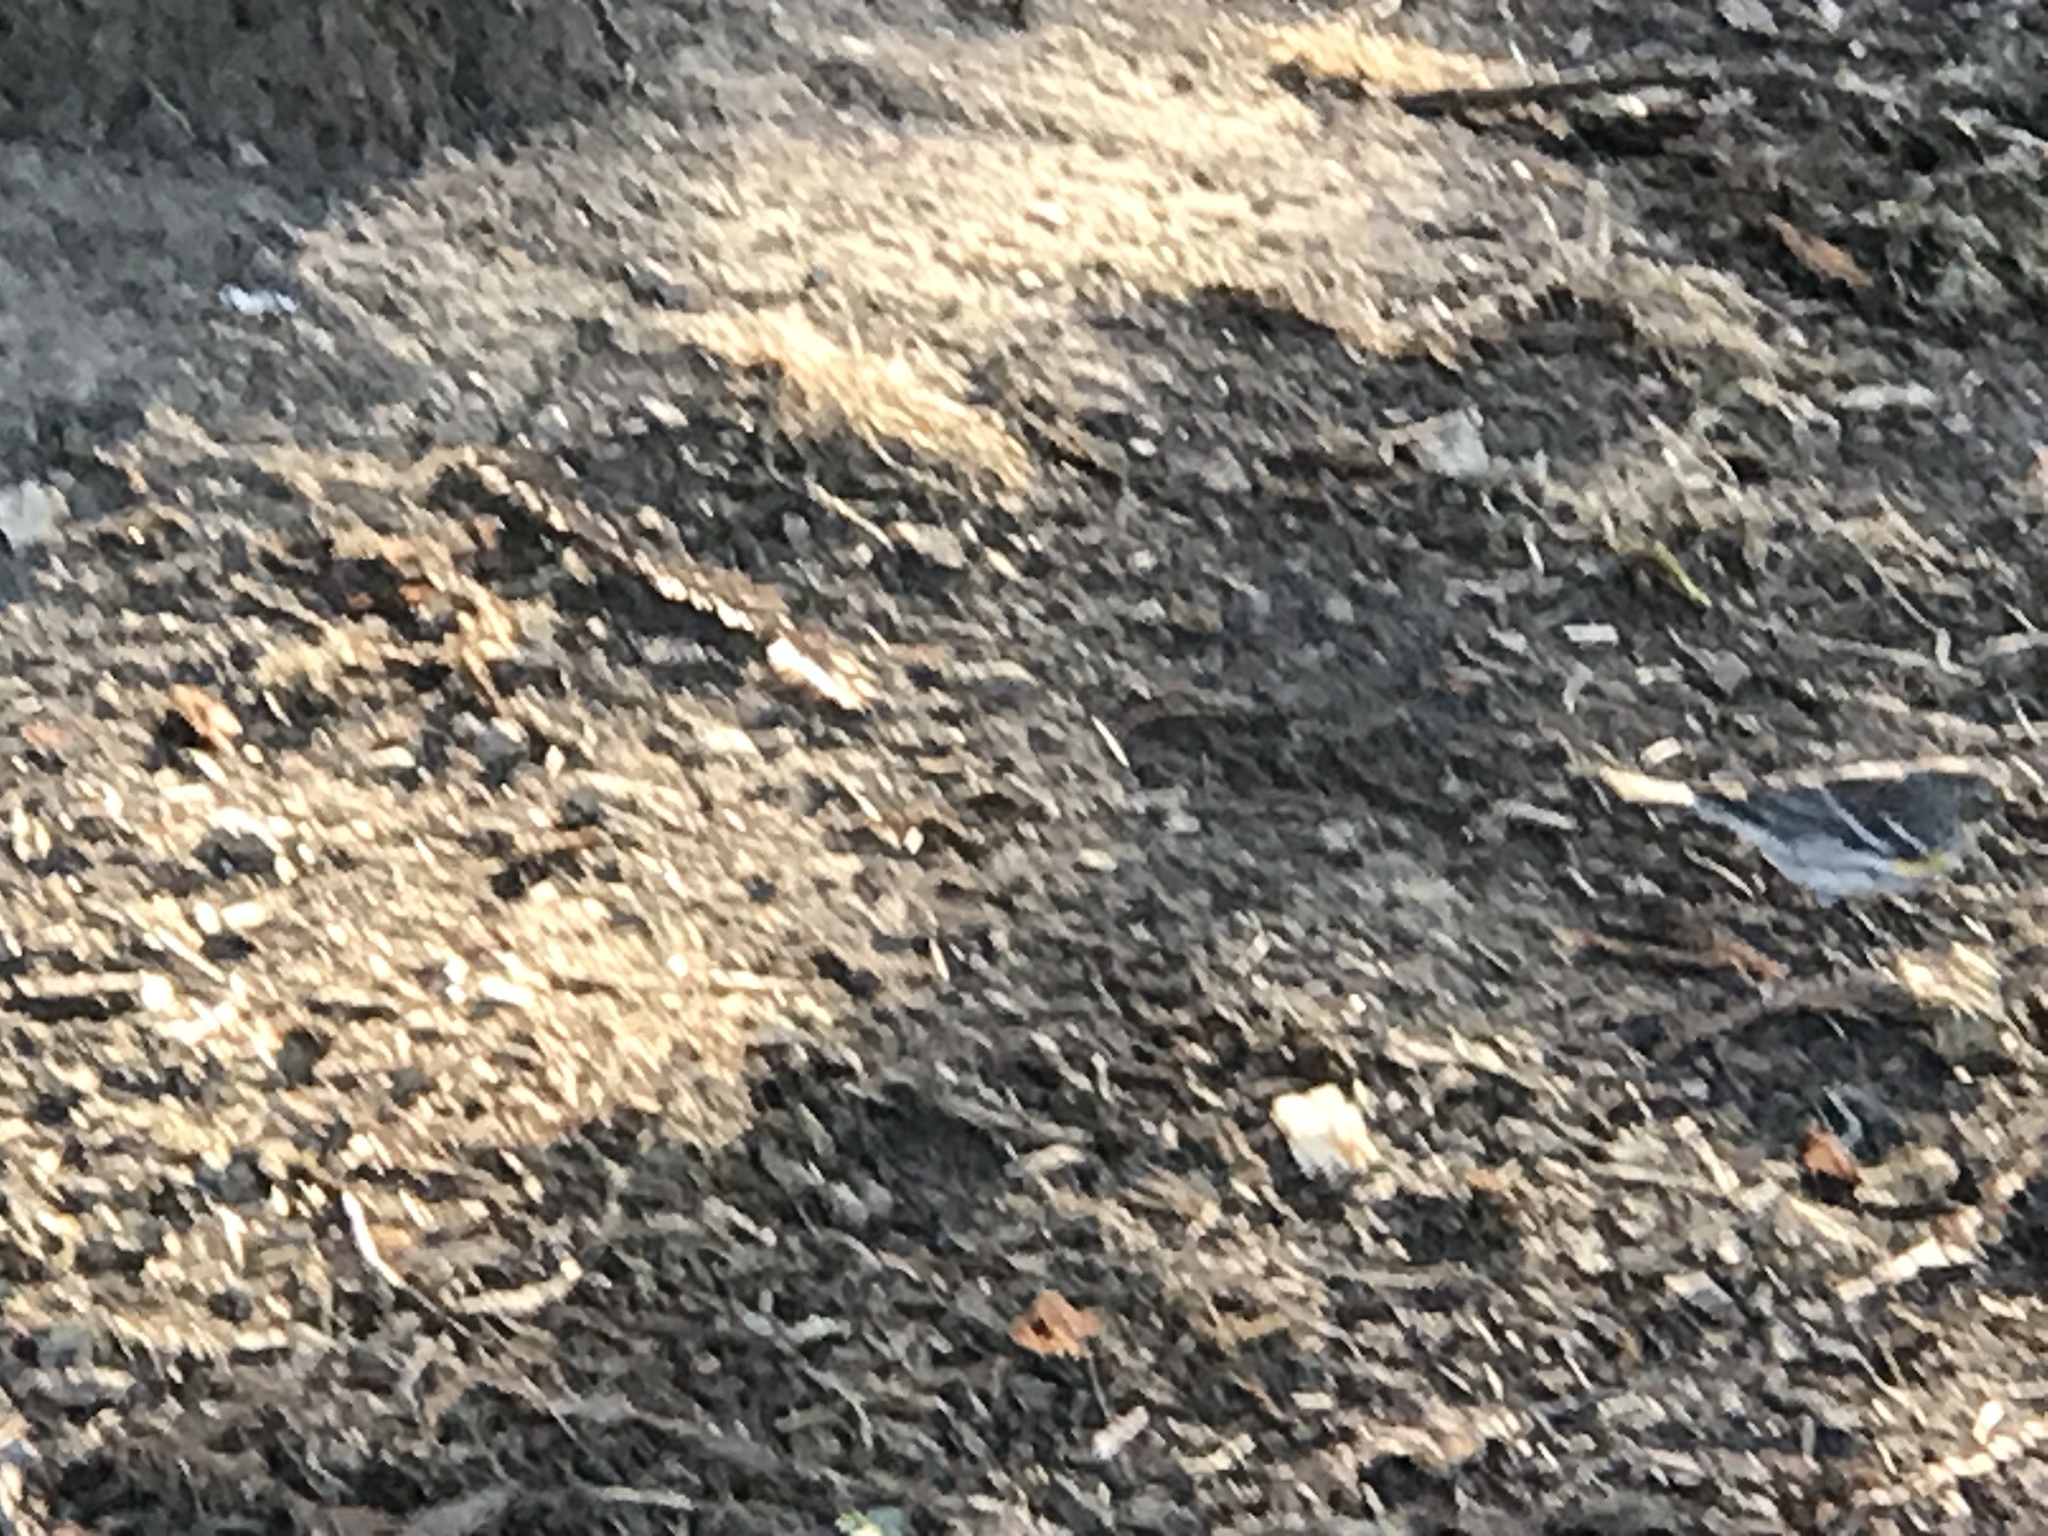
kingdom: Animalia
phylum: Chordata
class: Aves
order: Passeriformes
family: Parulidae
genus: Setophaga
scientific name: Setophaga coronata
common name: Myrtle warbler
